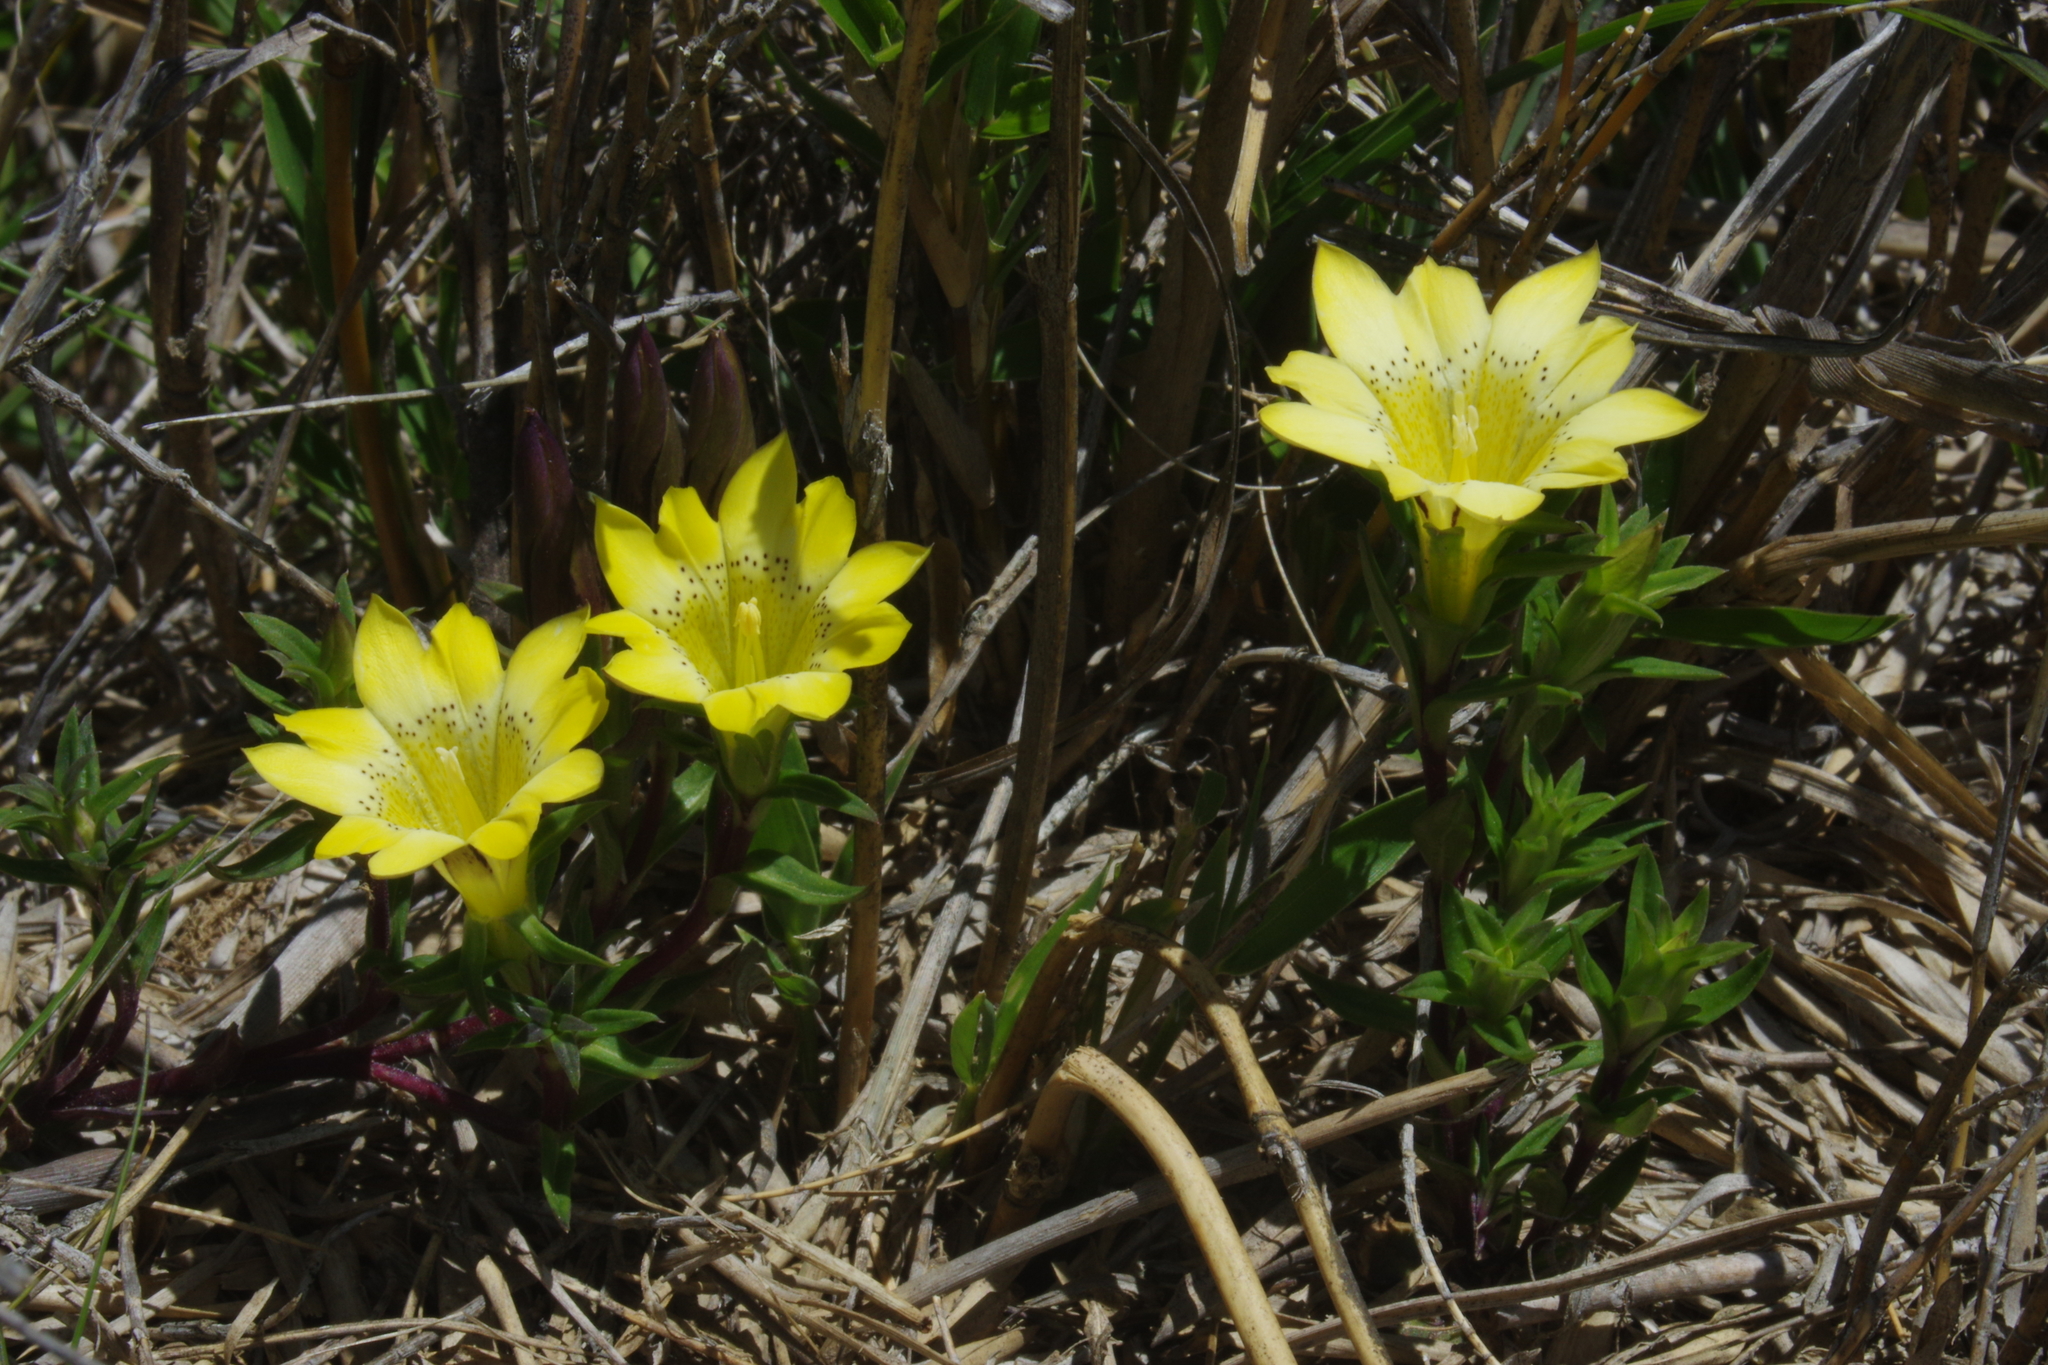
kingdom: Plantae
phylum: Tracheophyta
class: Magnoliopsida
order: Gentianales
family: Gentianaceae
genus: Gentiana
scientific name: Gentiana scabrida
